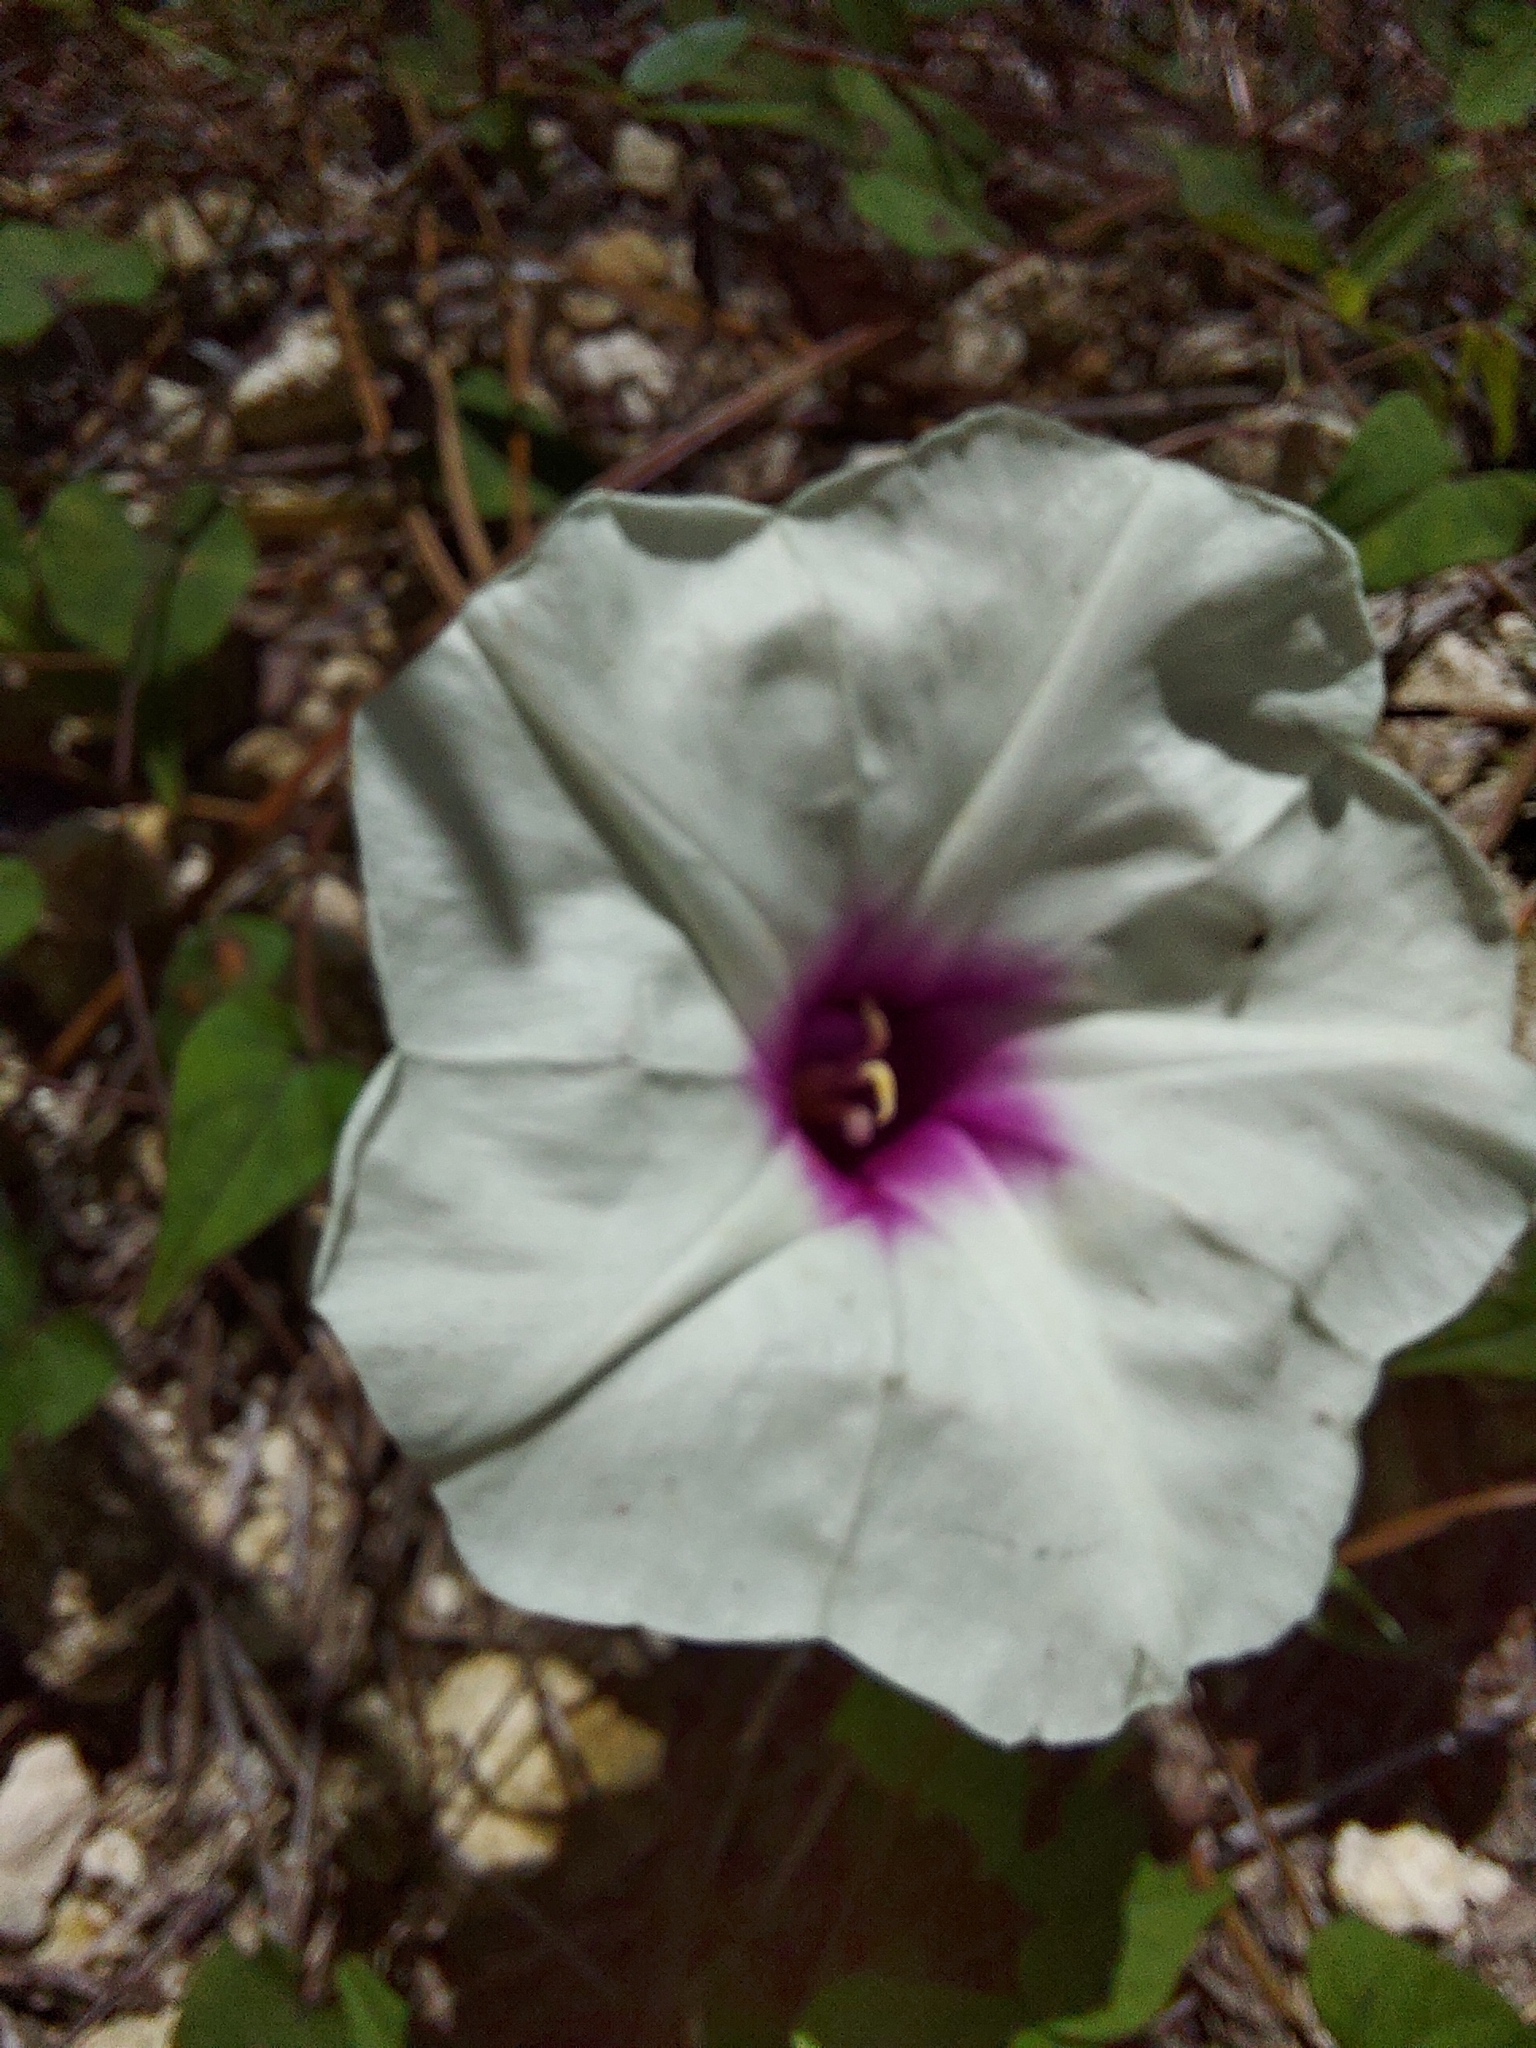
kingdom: Plantae
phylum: Tracheophyta
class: Magnoliopsida
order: Solanales
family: Convolvulaceae
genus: Ipomoea
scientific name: Ipomoea pandurata
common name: Man-of-the-earth
